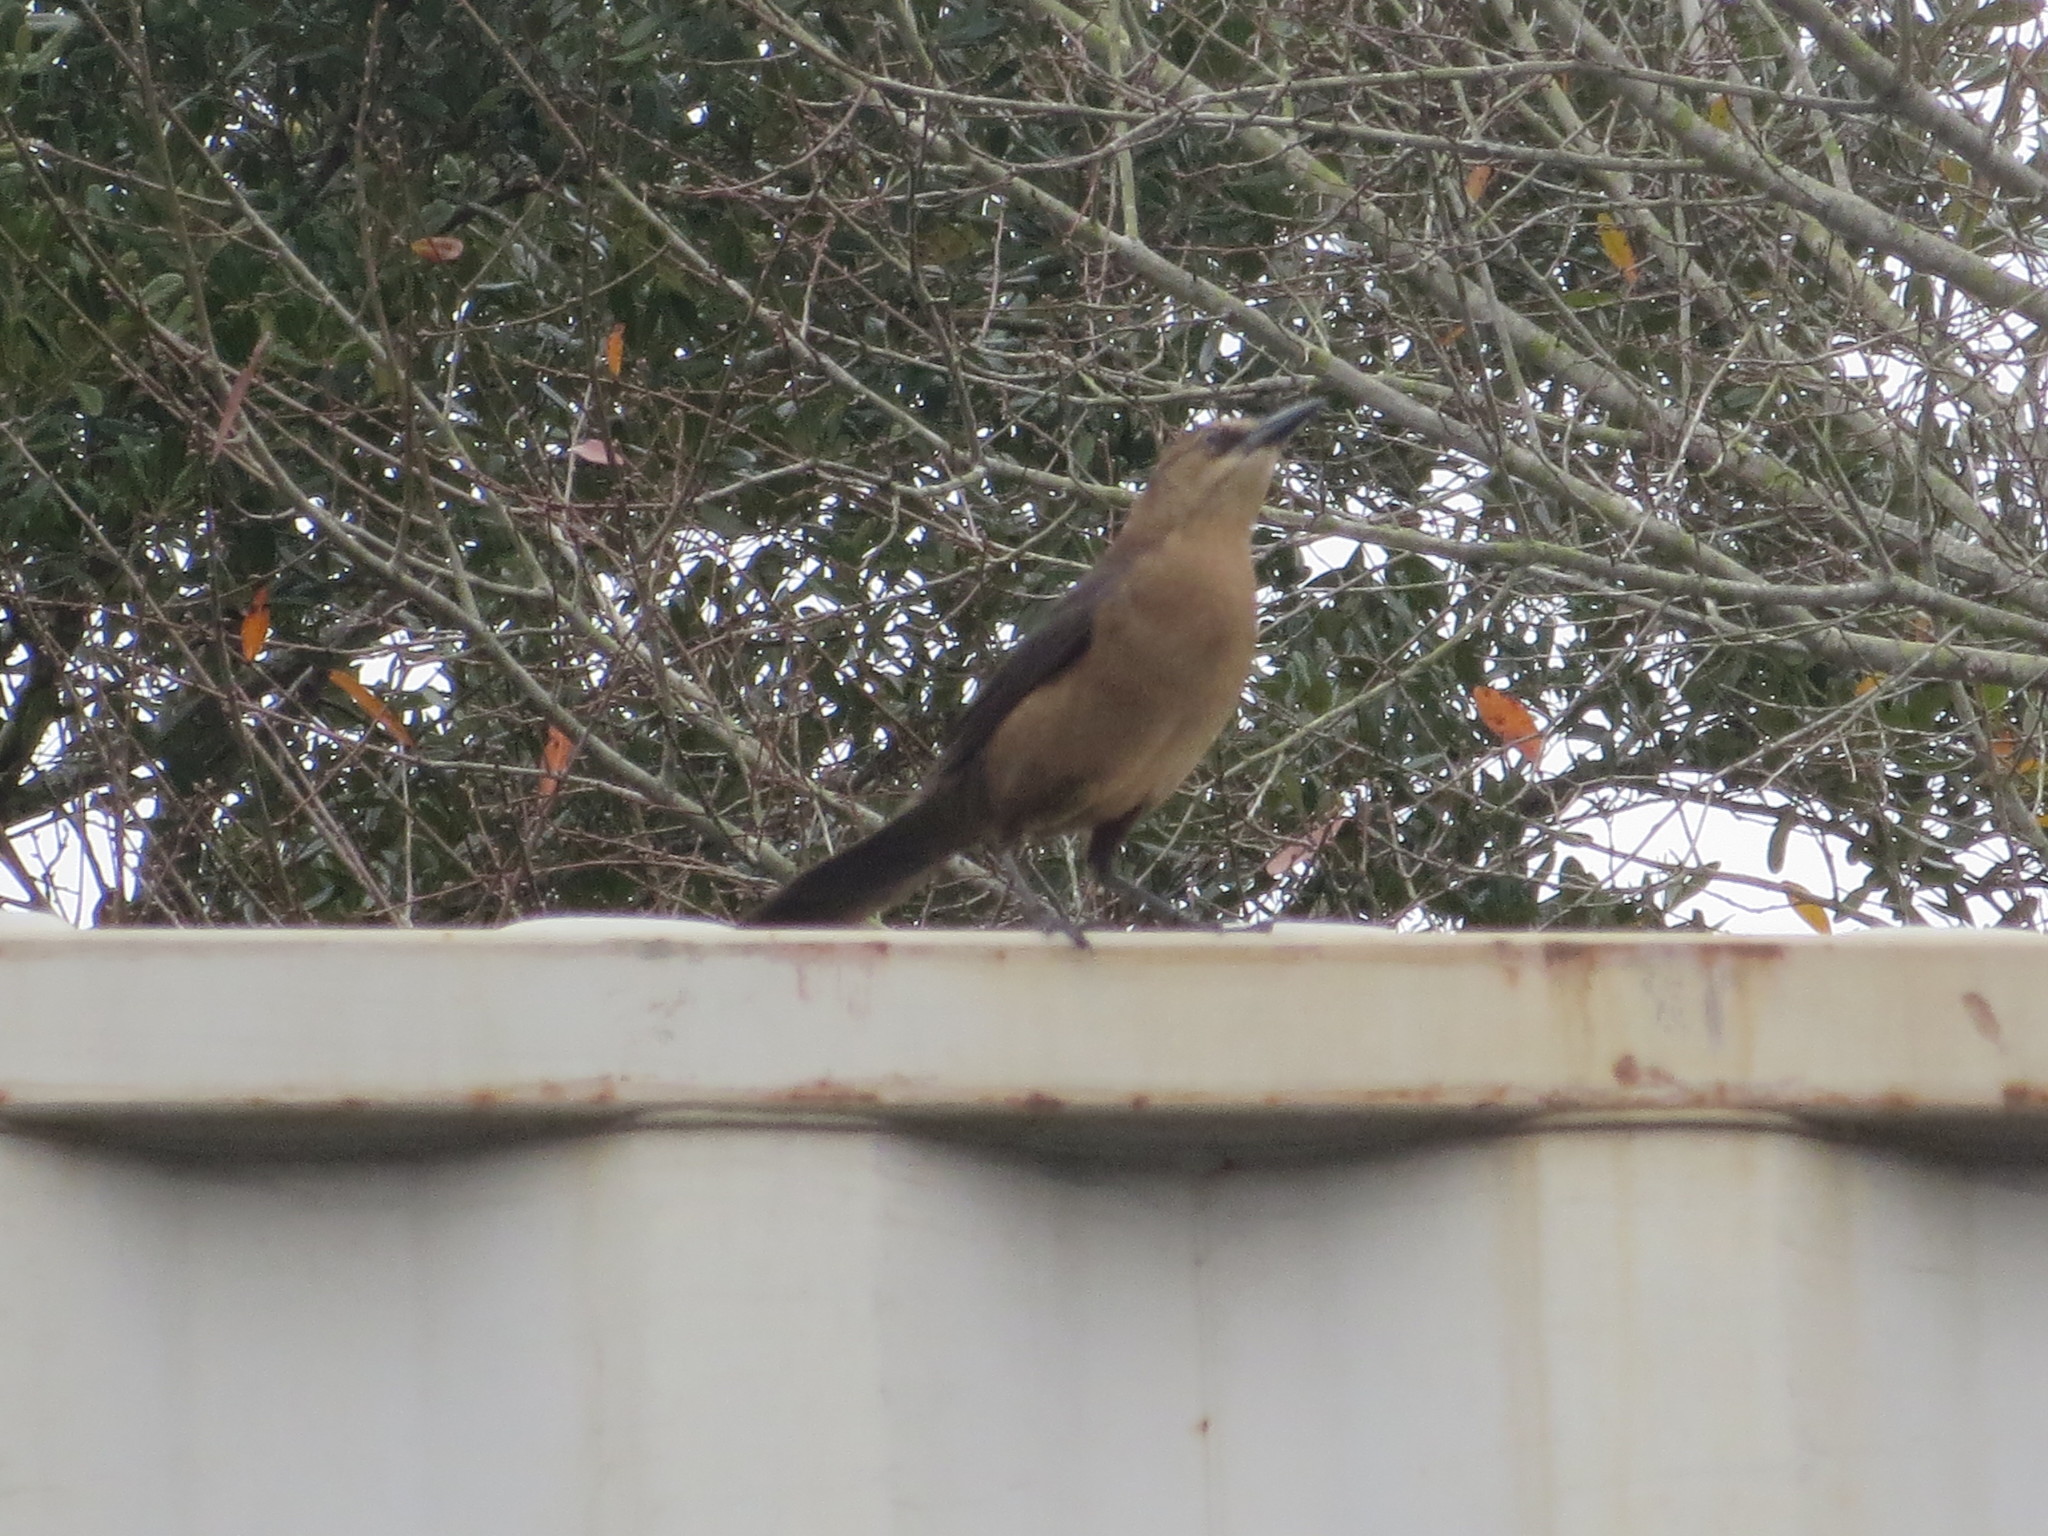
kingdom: Animalia
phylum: Chordata
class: Aves
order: Passeriformes
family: Icteridae
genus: Quiscalus
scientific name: Quiscalus major
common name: Boat-tailed grackle
